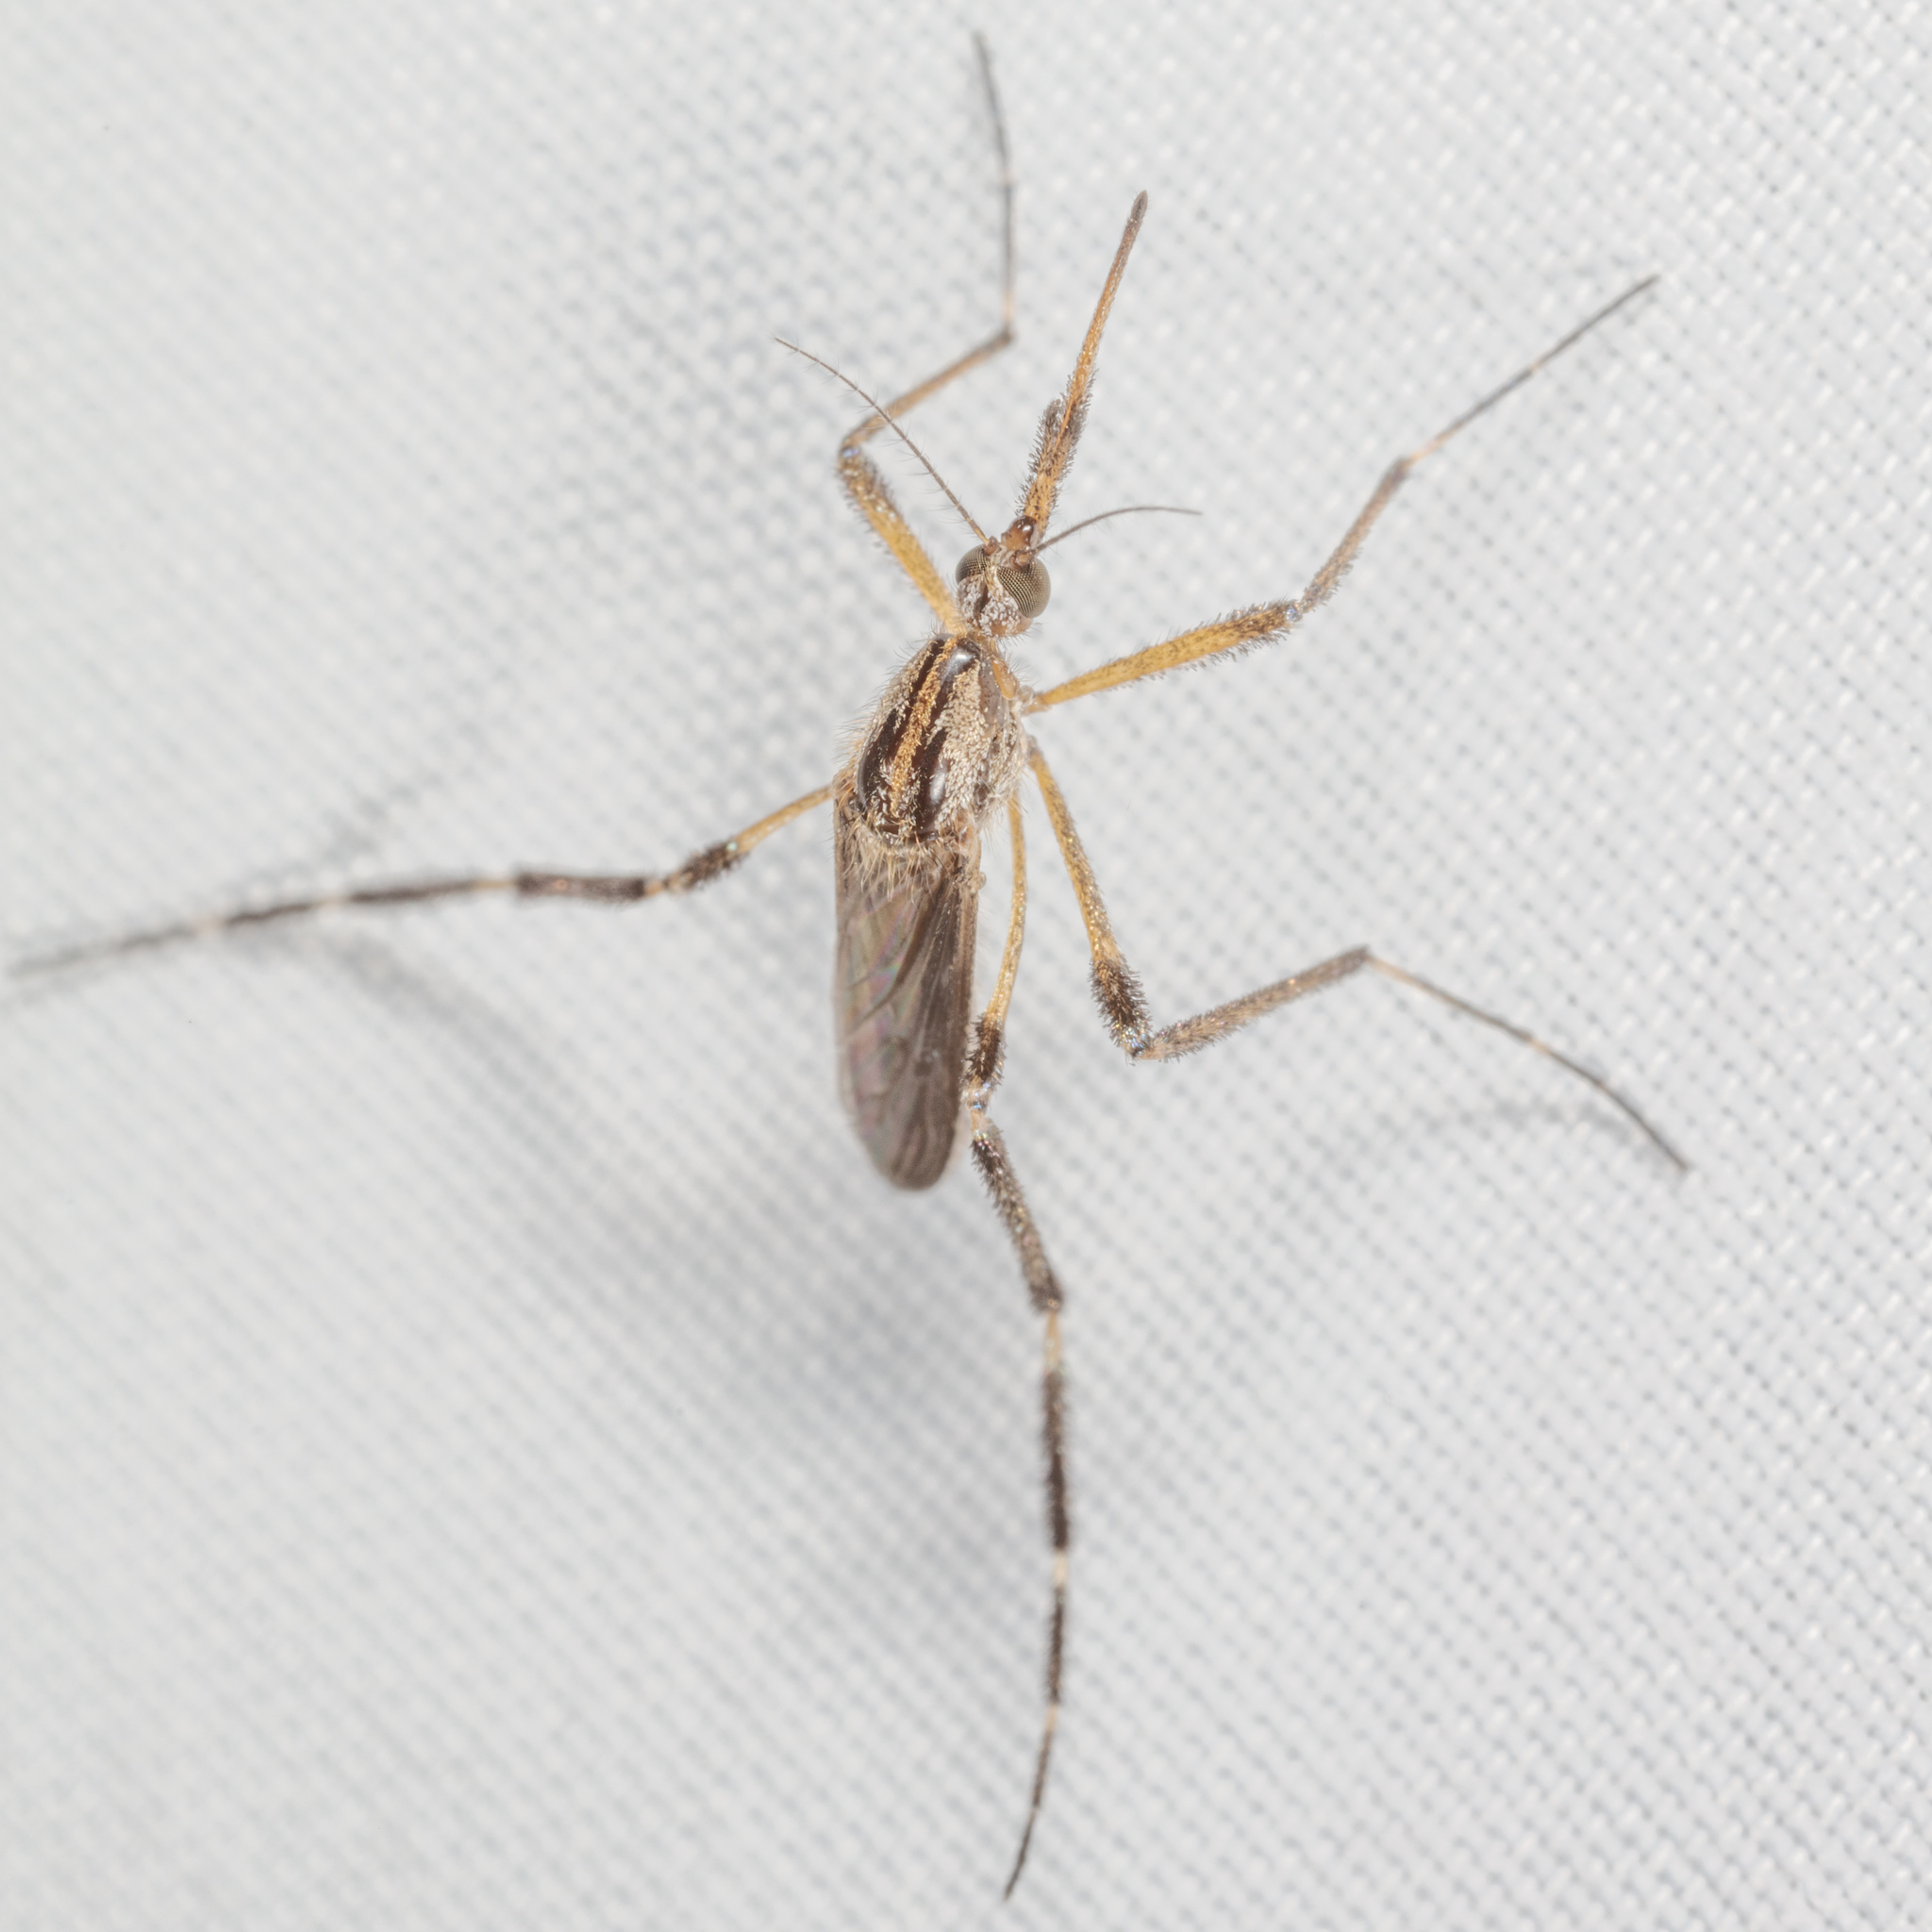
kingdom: Animalia
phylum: Arthropoda
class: Insecta
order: Diptera
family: Culicidae
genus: Psorophora
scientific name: Psorophora ciliata
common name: Gallinipper
